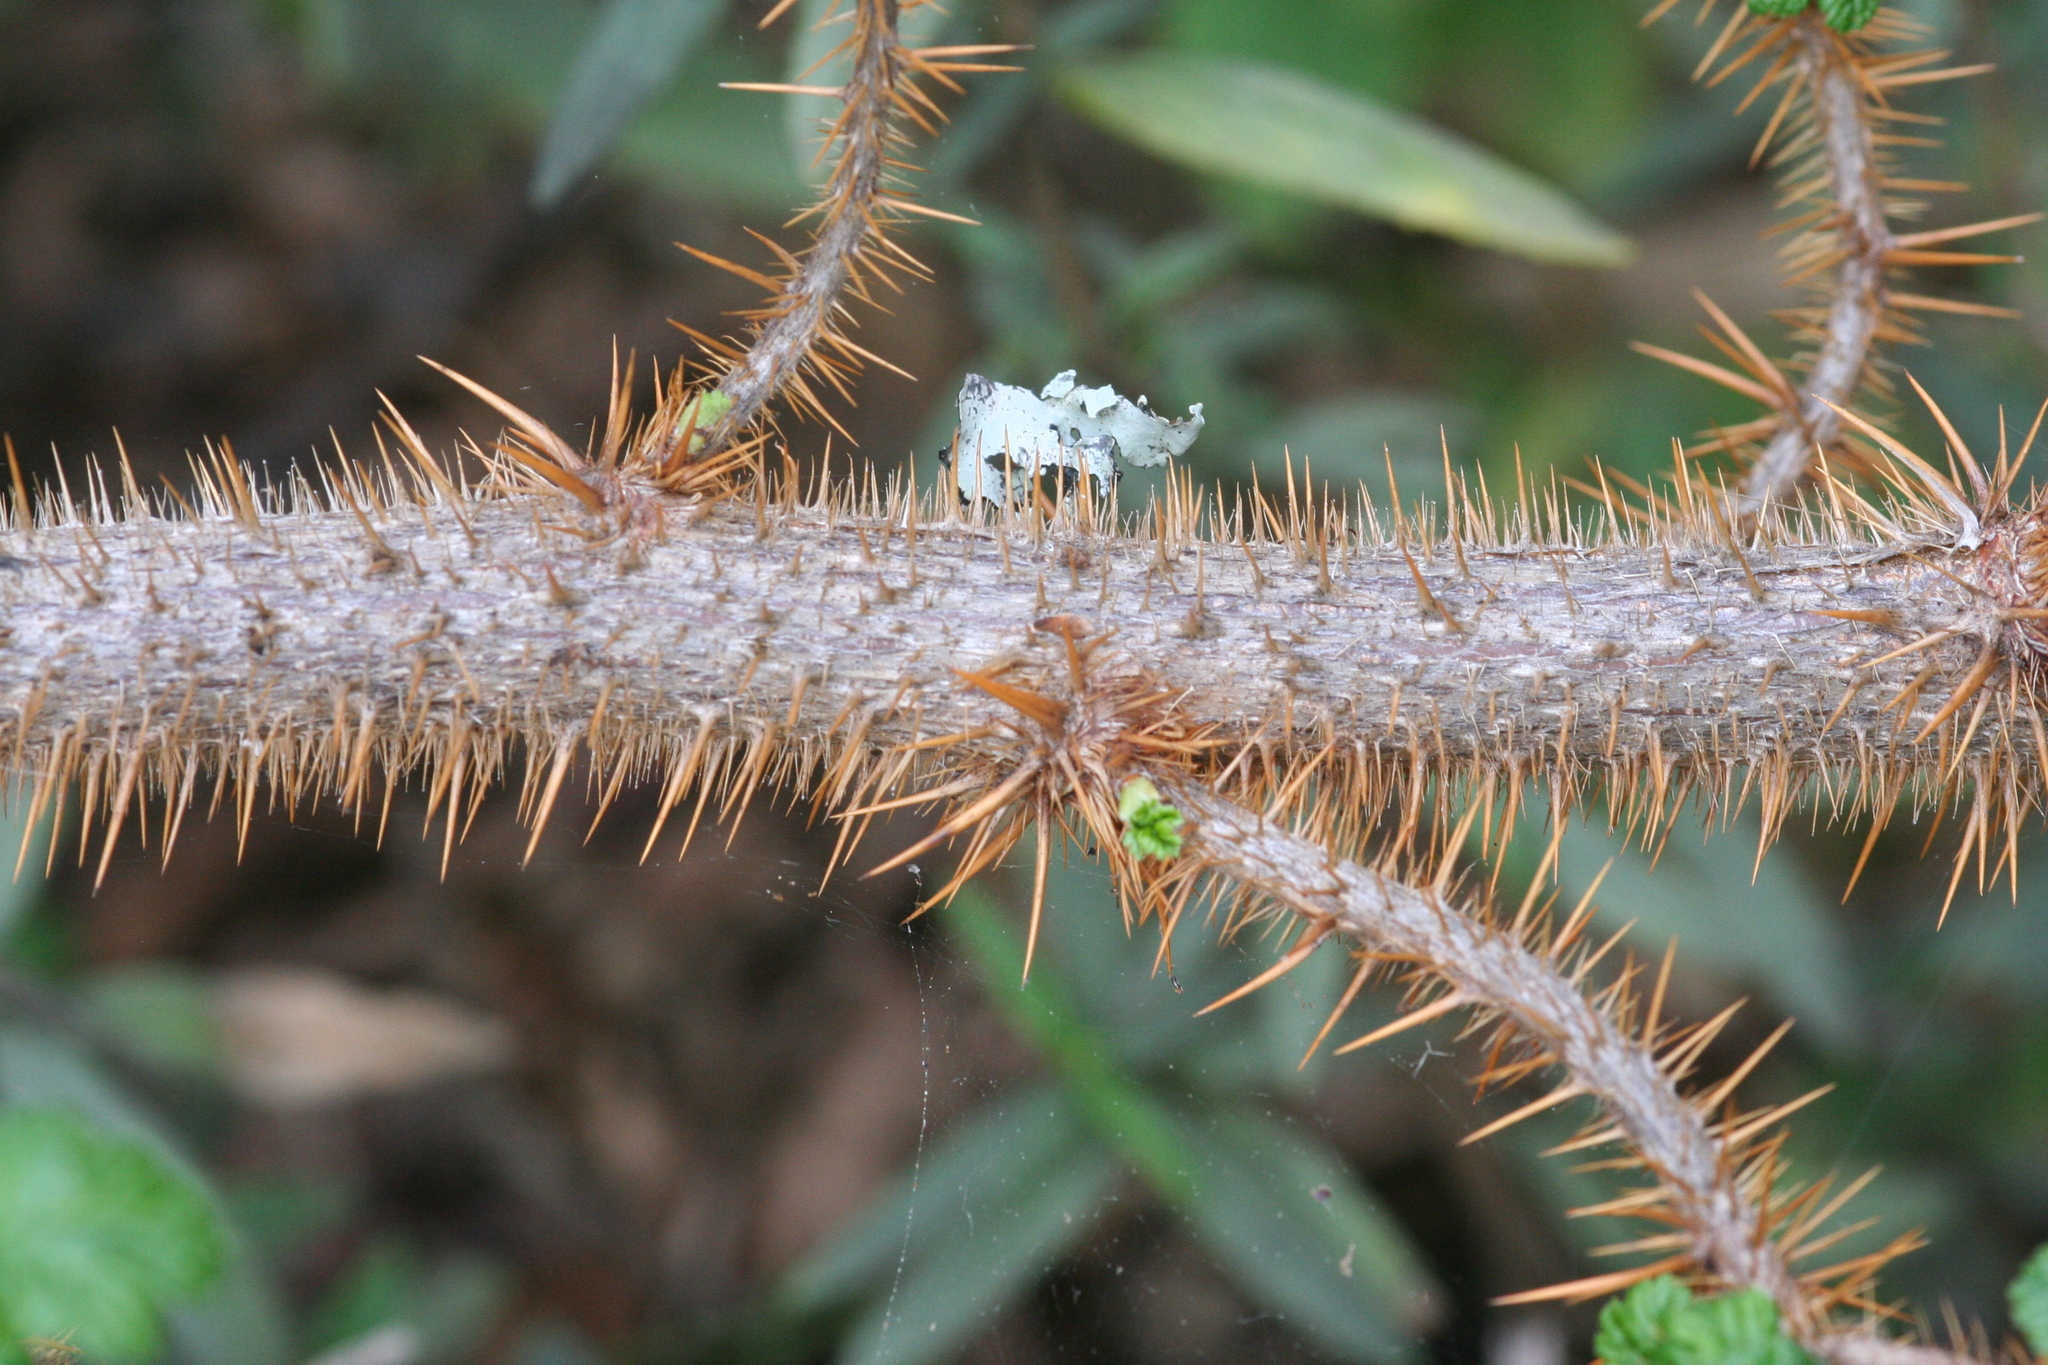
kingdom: Plantae
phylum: Tracheophyta
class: Magnoliopsida
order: Saxifragales
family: Grossulariaceae
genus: Ribes
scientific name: Ribes menziesii
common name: Canyon gooseberry
